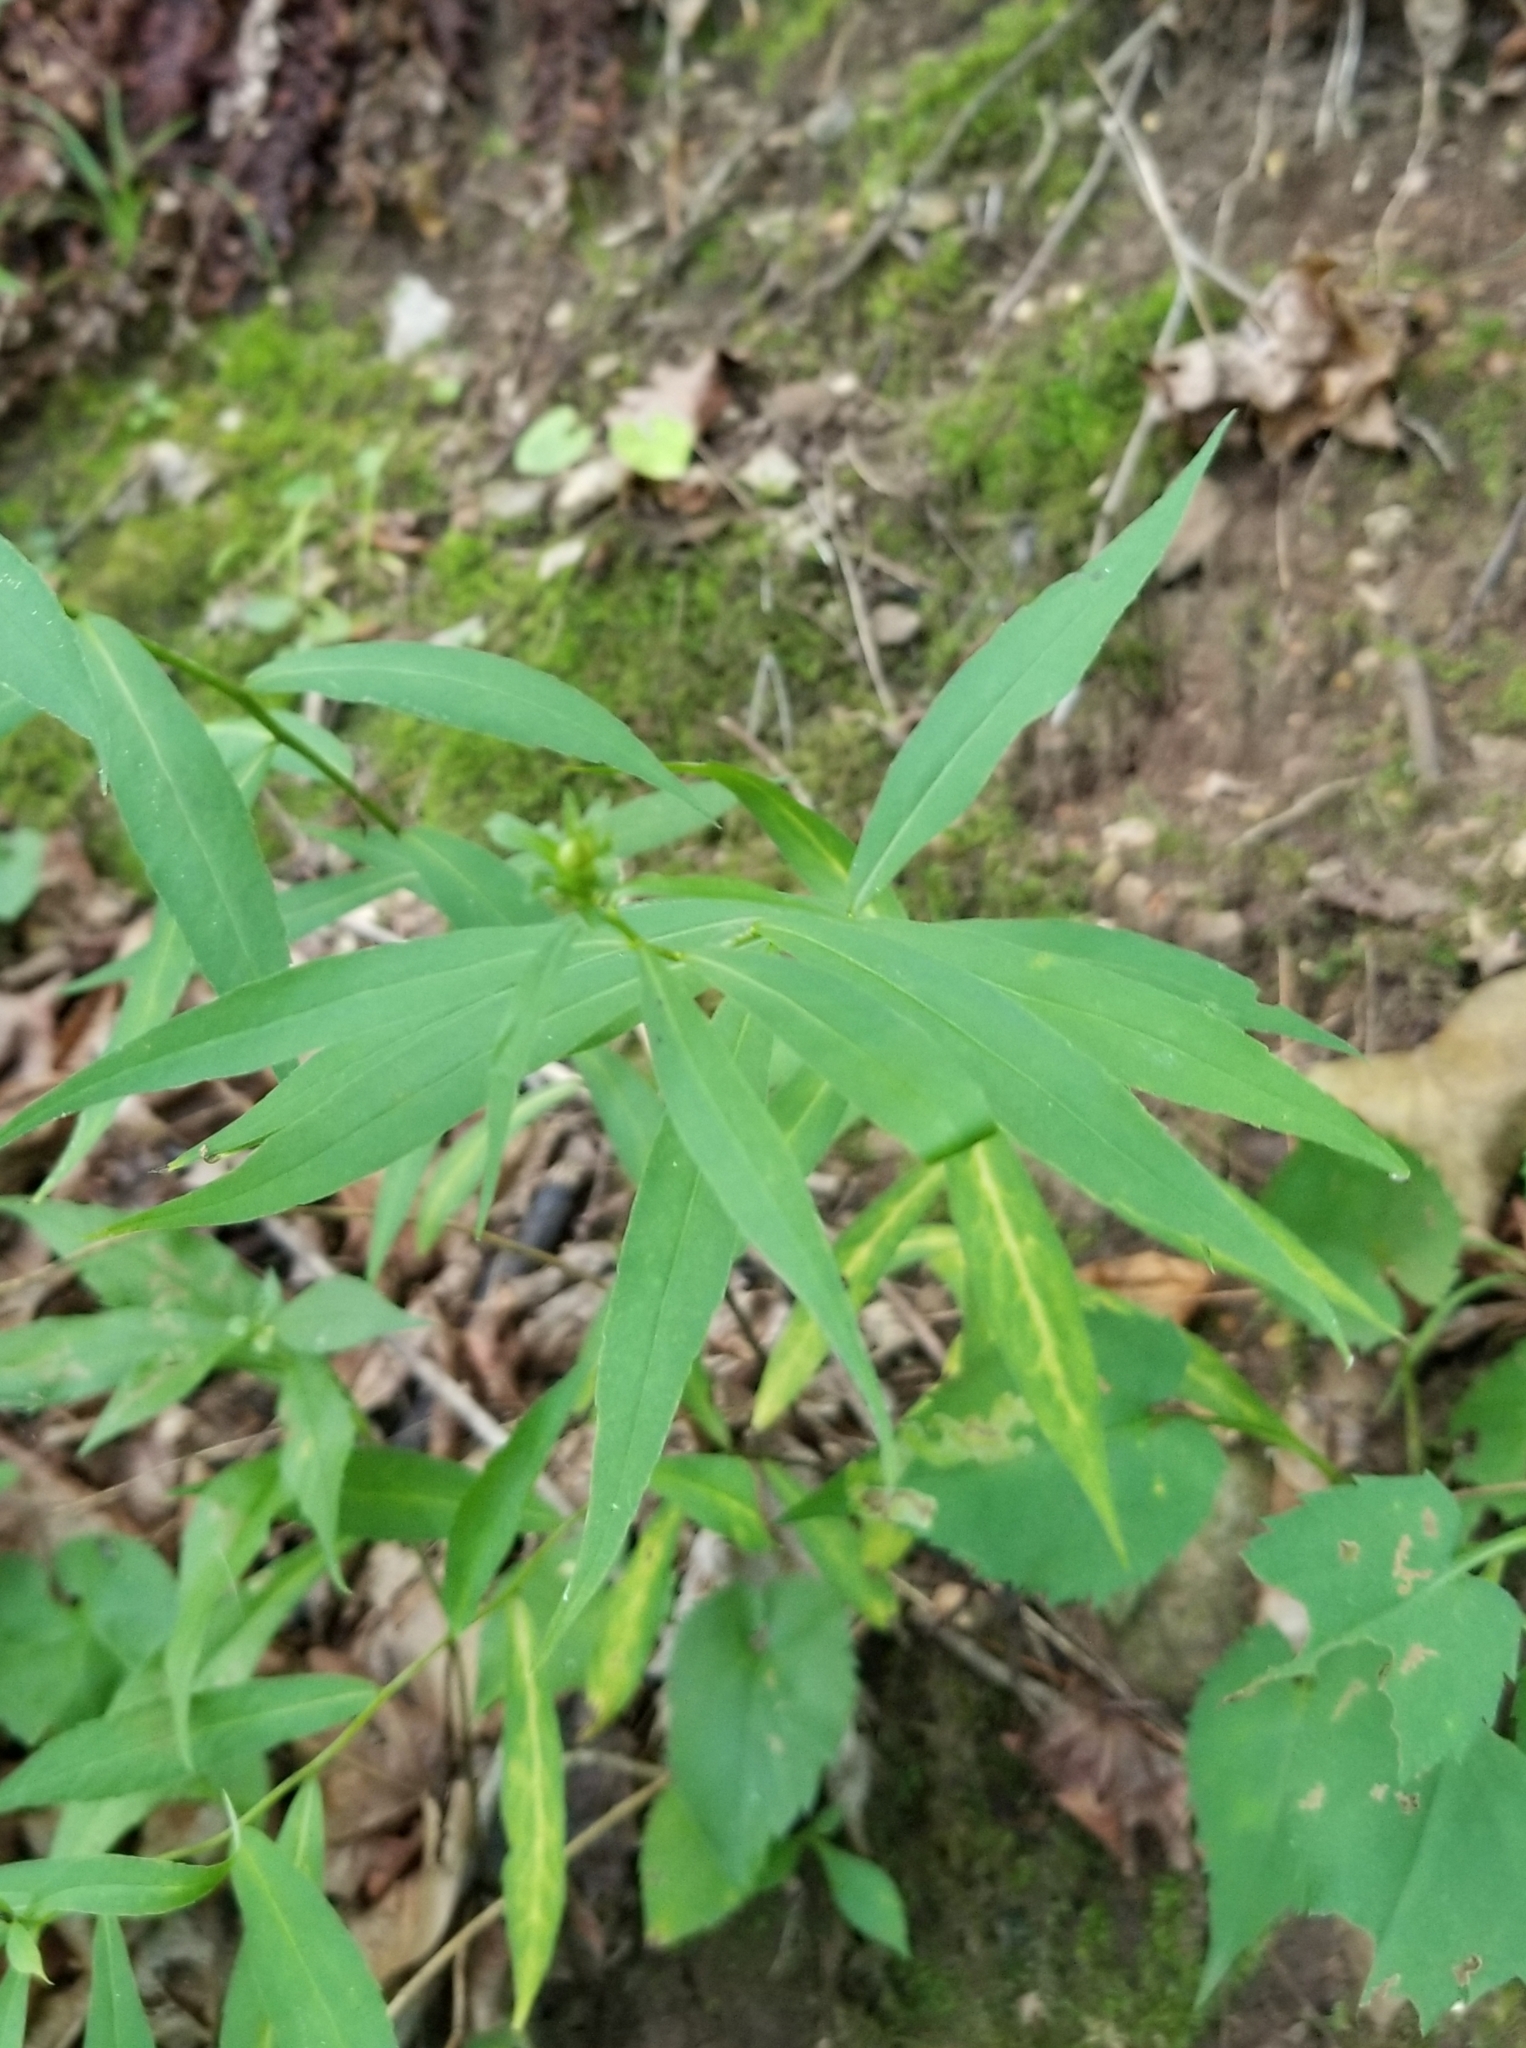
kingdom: Plantae
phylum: Tracheophyta
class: Magnoliopsida
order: Asterales
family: Asteraceae
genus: Solidago
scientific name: Solidago caesia
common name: Woodland goldenrod
